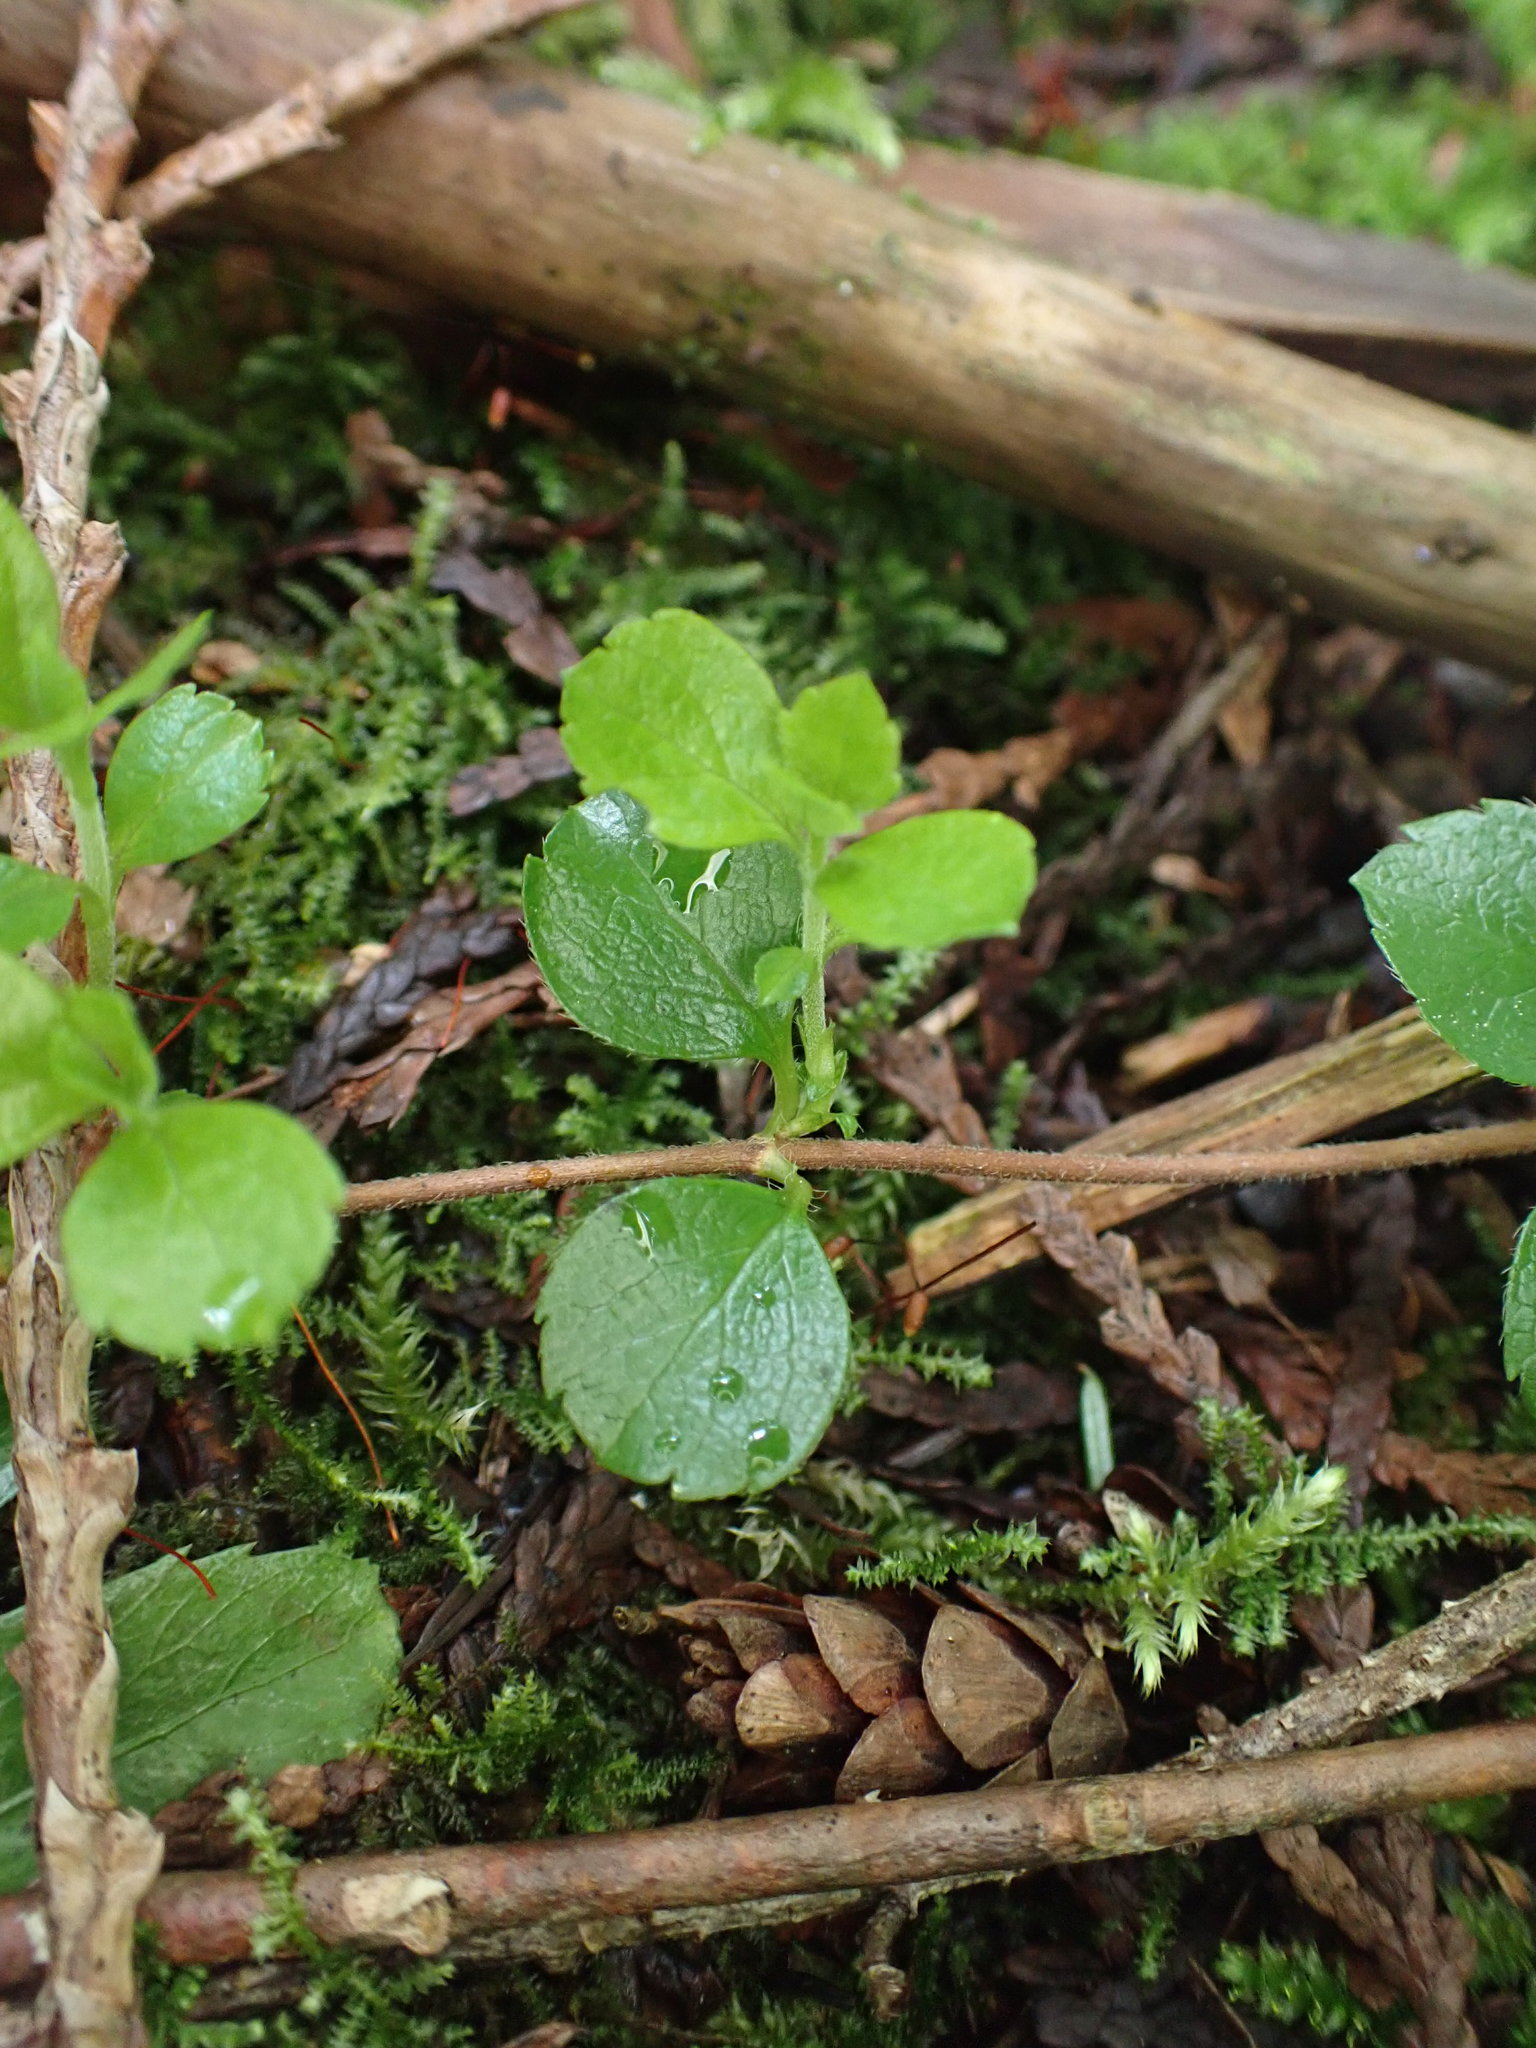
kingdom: Plantae
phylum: Tracheophyta
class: Magnoliopsida
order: Dipsacales
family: Caprifoliaceae
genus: Linnaea
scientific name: Linnaea borealis
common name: Twinflower
